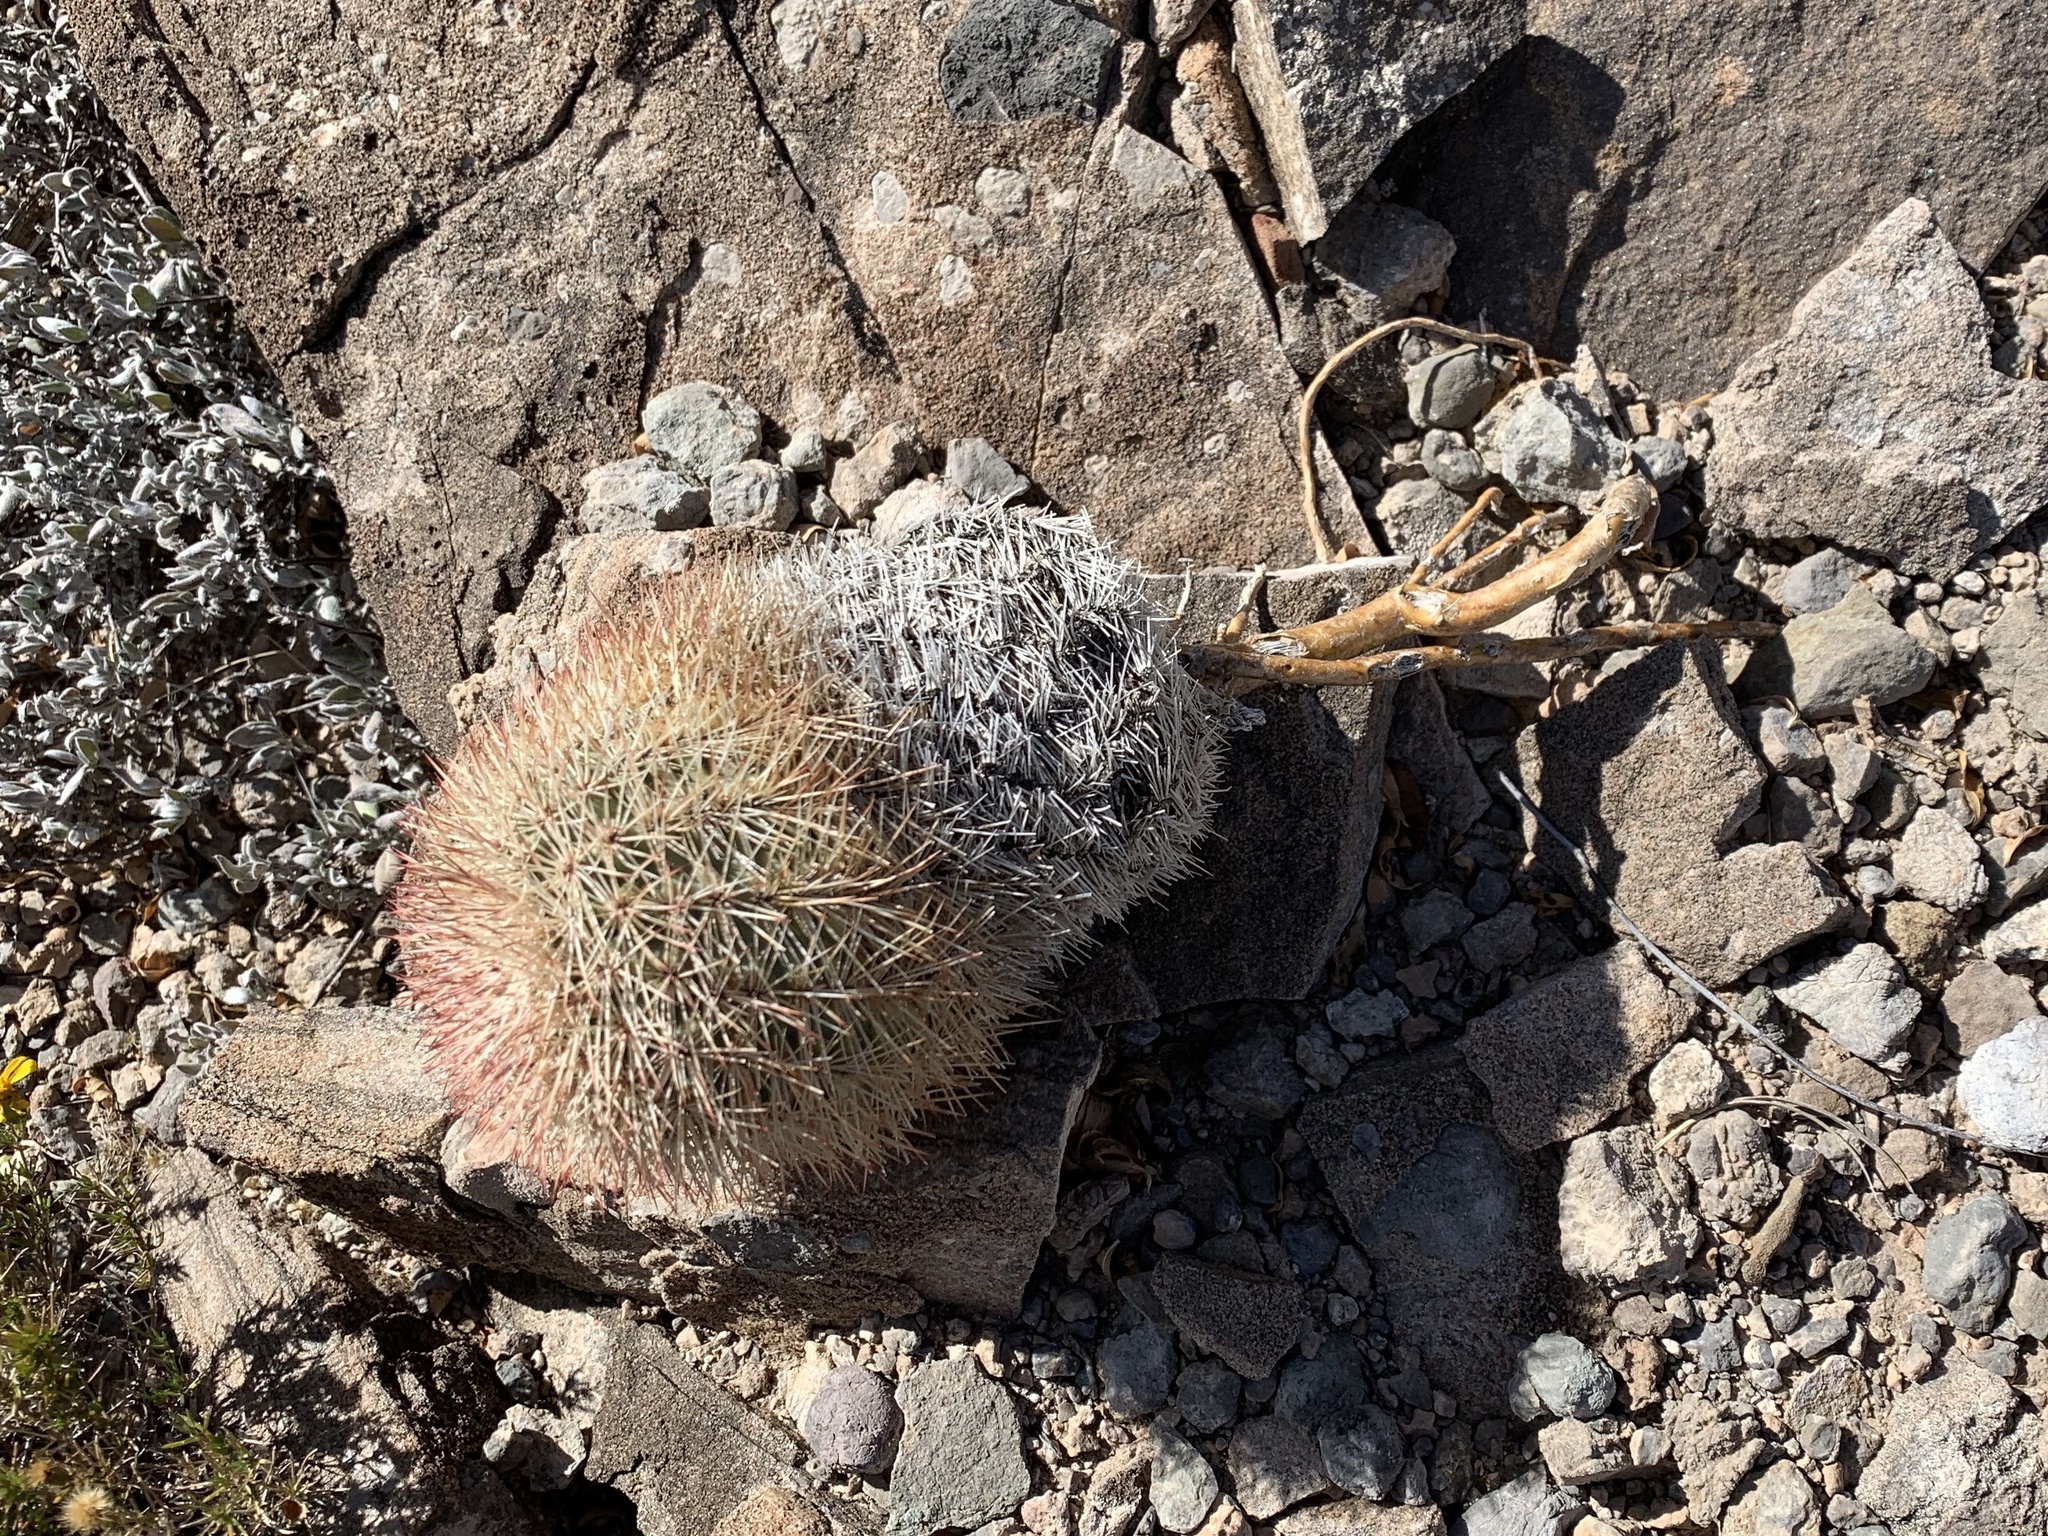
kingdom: Plantae
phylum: Tracheophyta
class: Magnoliopsida
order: Caryophyllales
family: Cactaceae
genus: Echinocereus
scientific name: Echinocereus dasyacanthus
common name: Spiny hedgehog cactus
